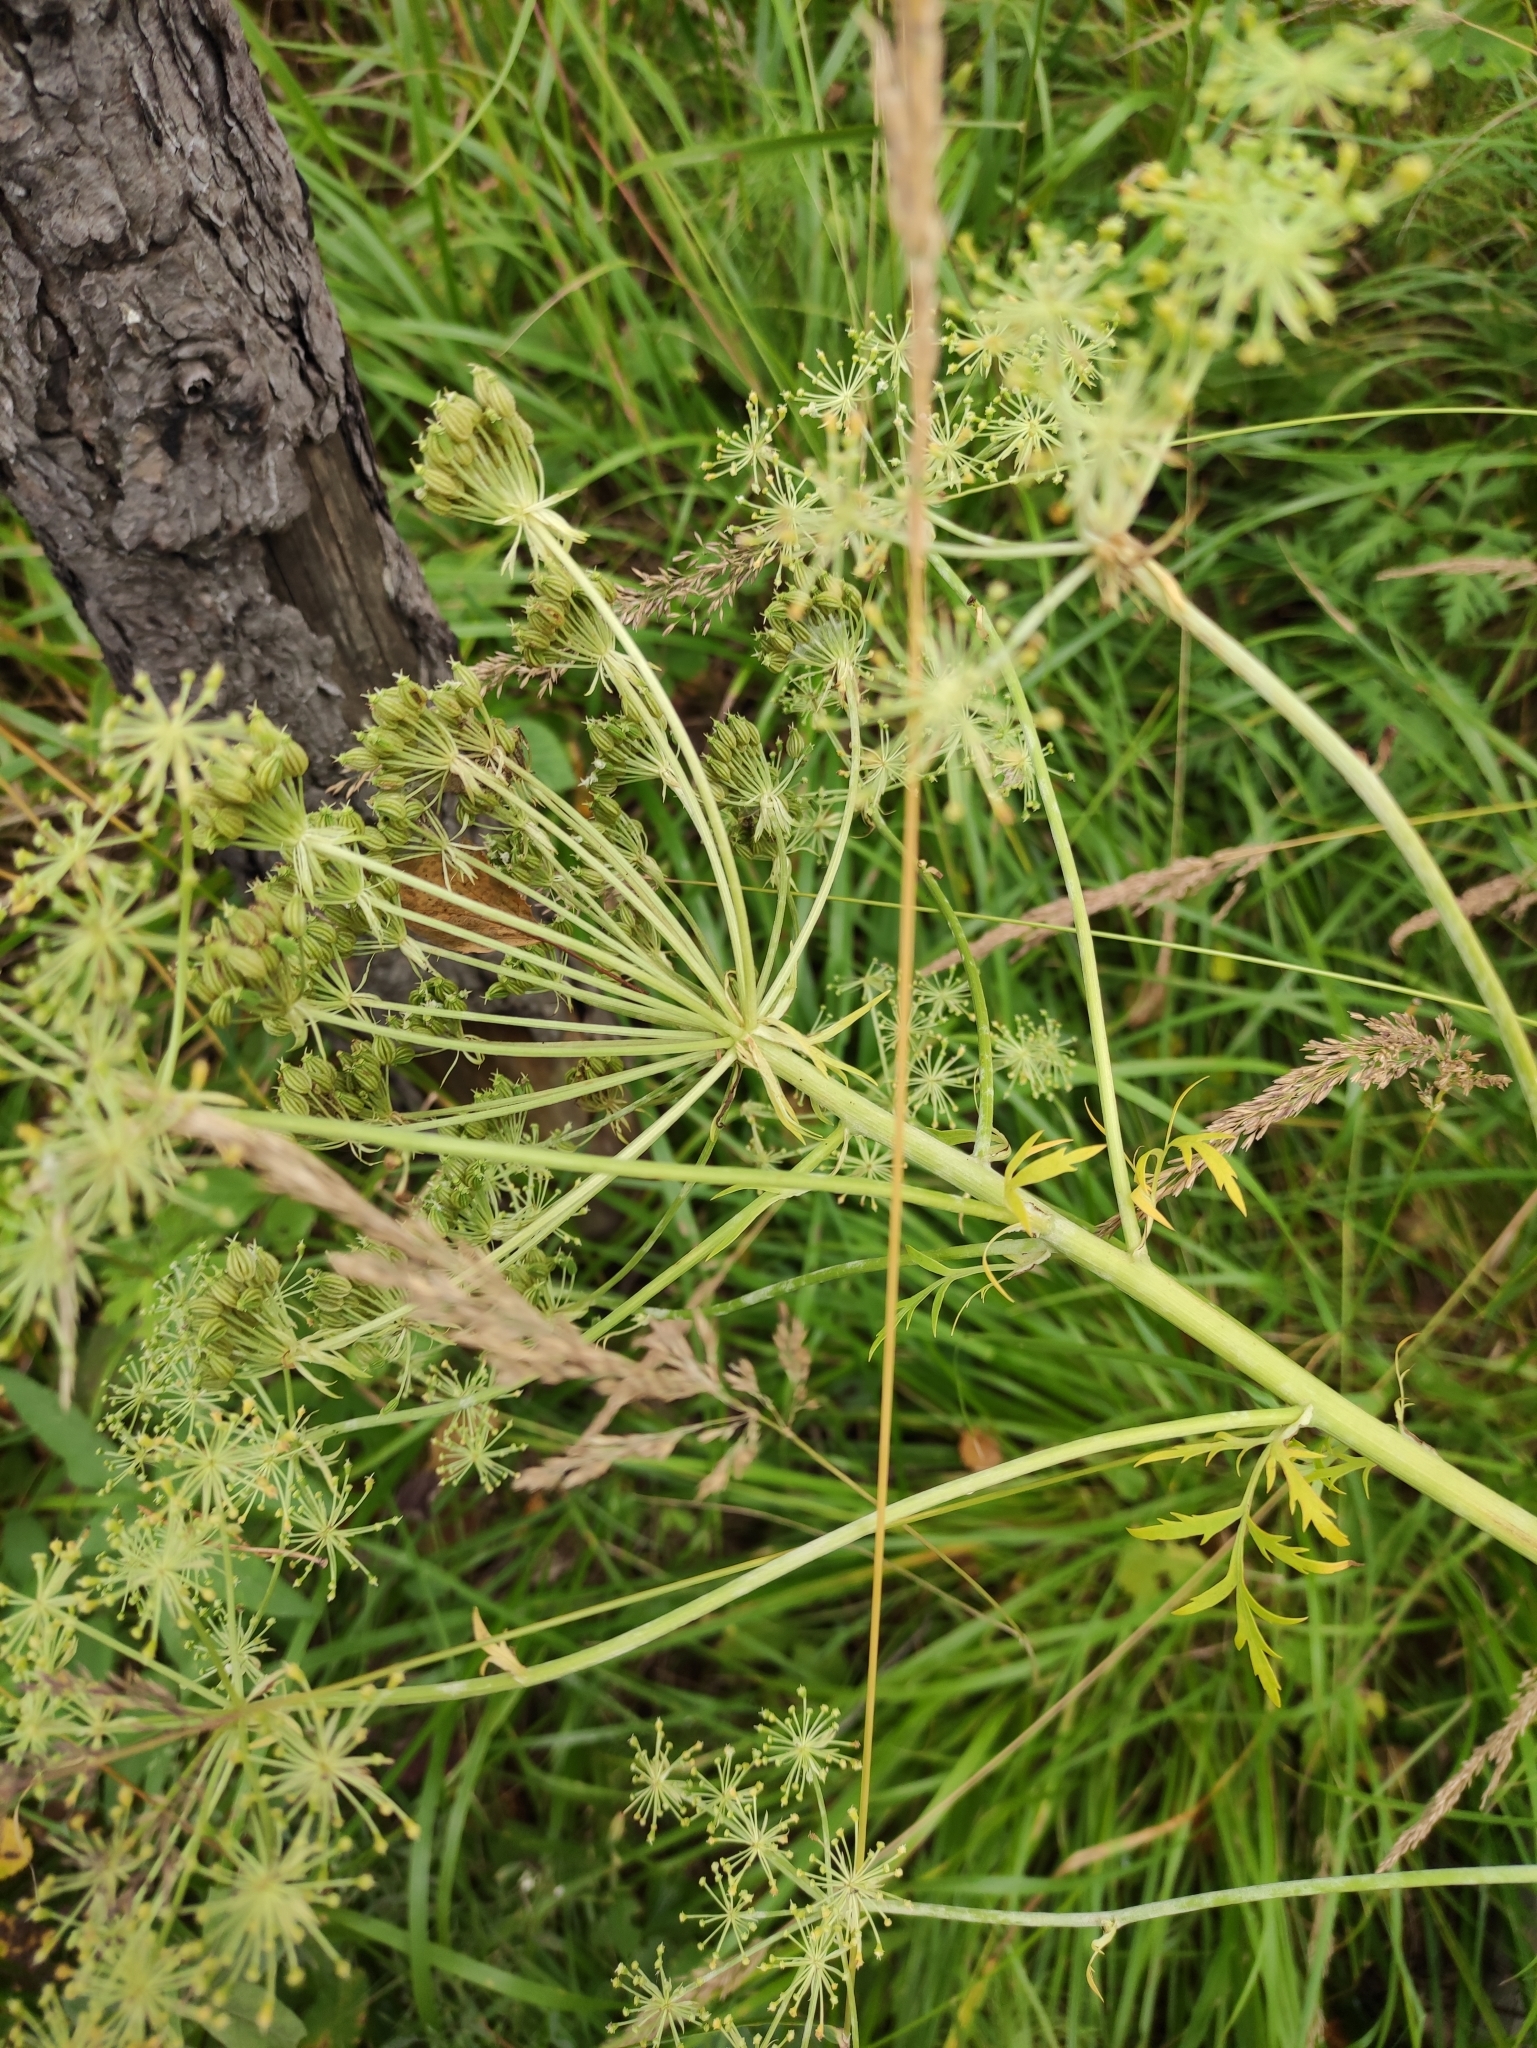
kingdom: Plantae
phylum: Tracheophyta
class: Magnoliopsida
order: Apiales
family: Apiaceae
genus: Pleurospermum
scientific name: Pleurospermum uralense
